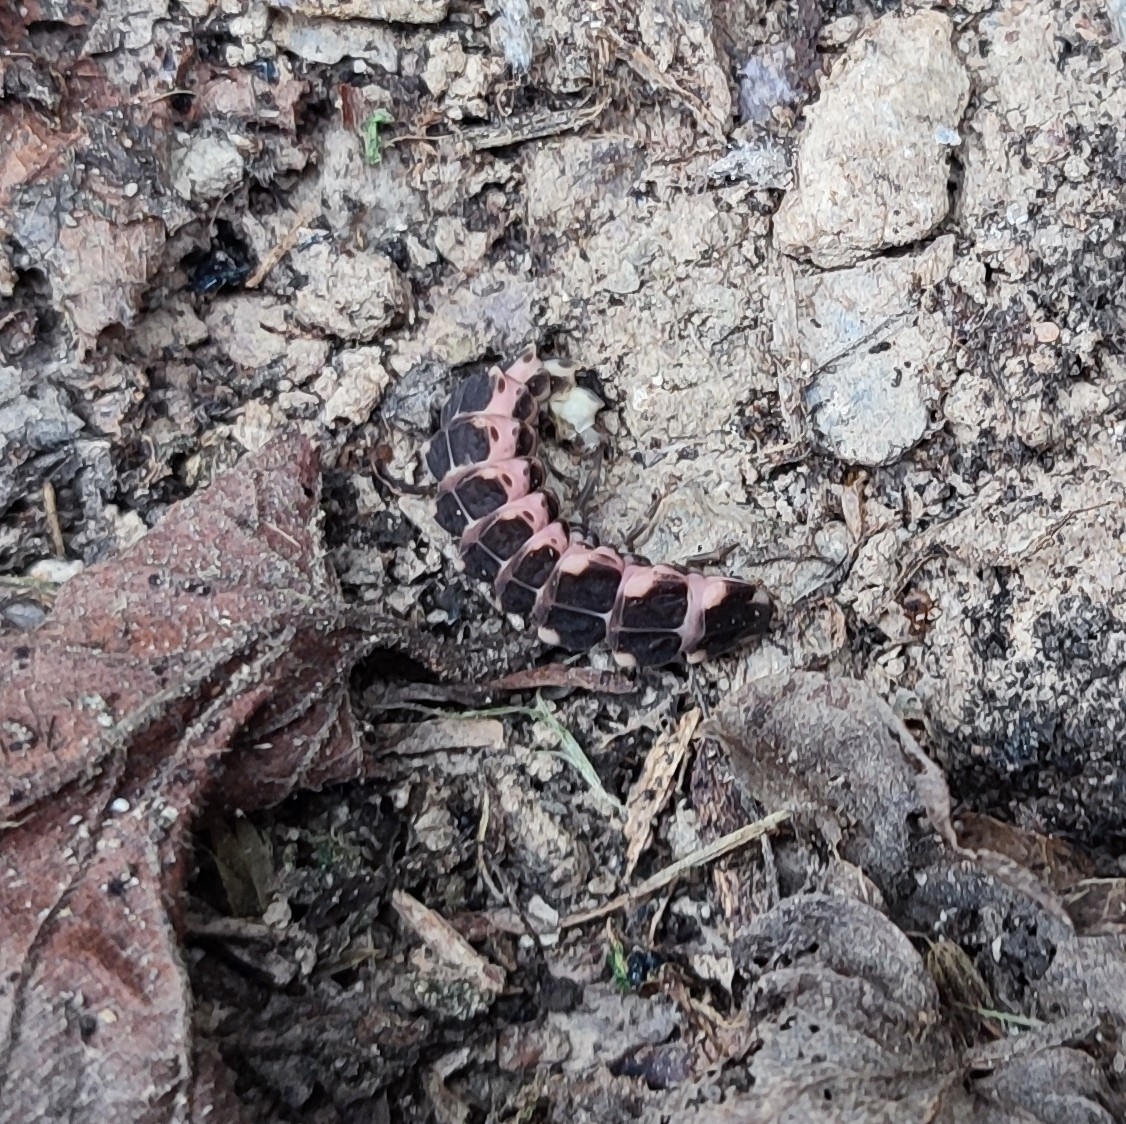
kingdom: Animalia
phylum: Arthropoda
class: Insecta
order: Coleoptera
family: Lampyridae
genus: Lampyris
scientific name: Lampyris raymondi
